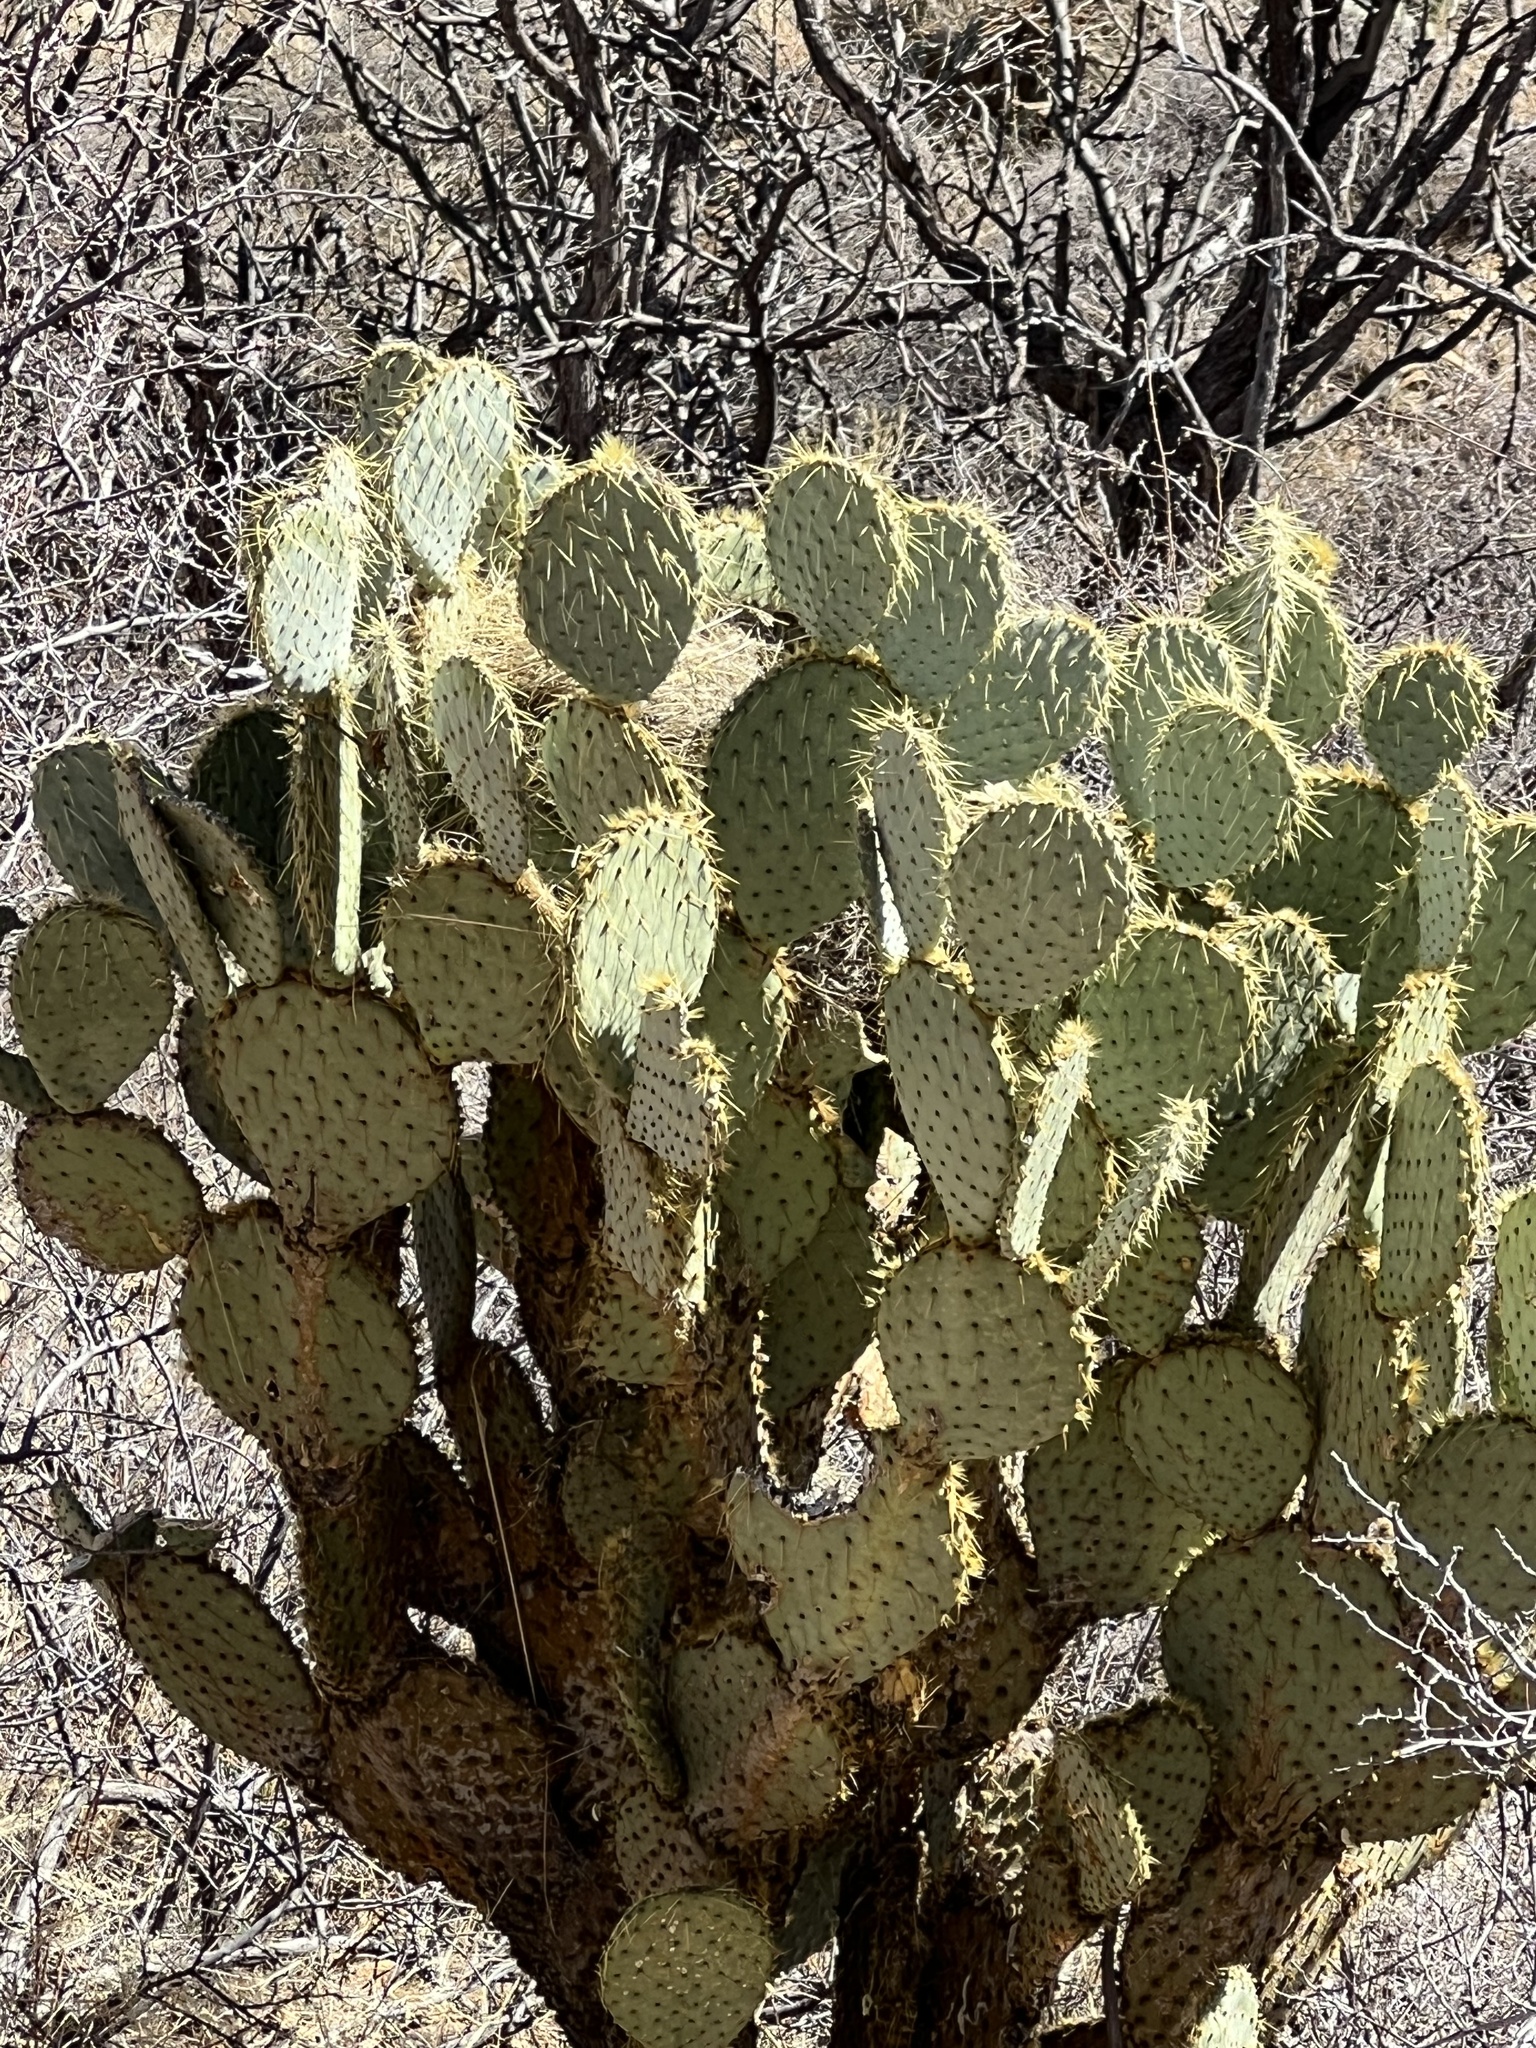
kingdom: Plantae
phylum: Tracheophyta
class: Magnoliopsida
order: Caryophyllales
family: Cactaceae
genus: Opuntia
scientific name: Opuntia chlorotica
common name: Dollar-joint prickly-pear
